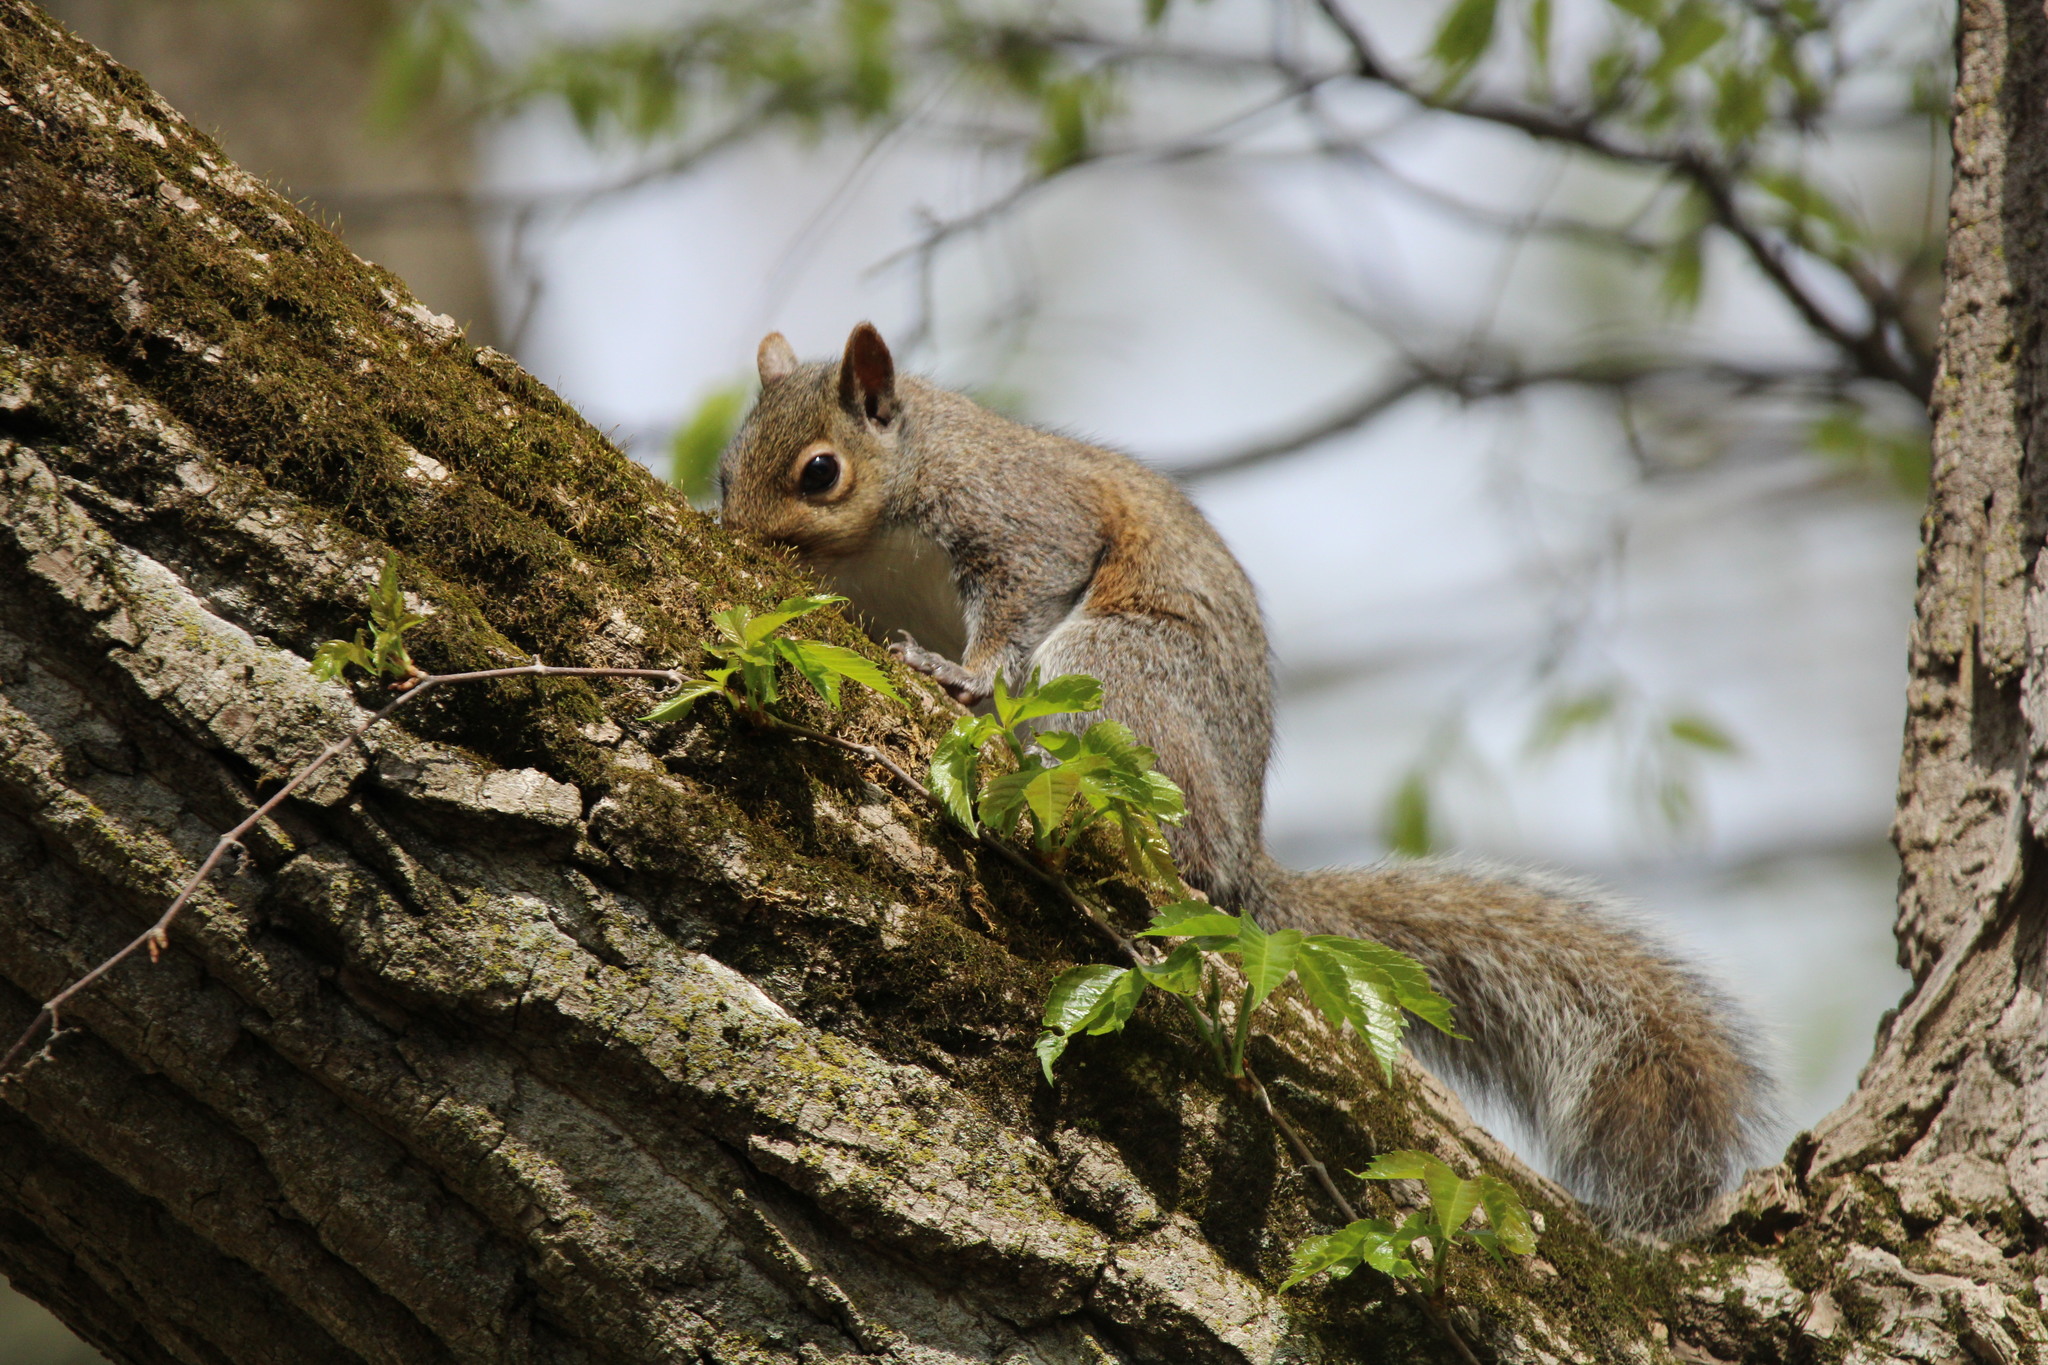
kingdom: Animalia
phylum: Chordata
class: Mammalia
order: Rodentia
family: Sciuridae
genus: Sciurus
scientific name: Sciurus carolinensis
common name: Eastern gray squirrel
